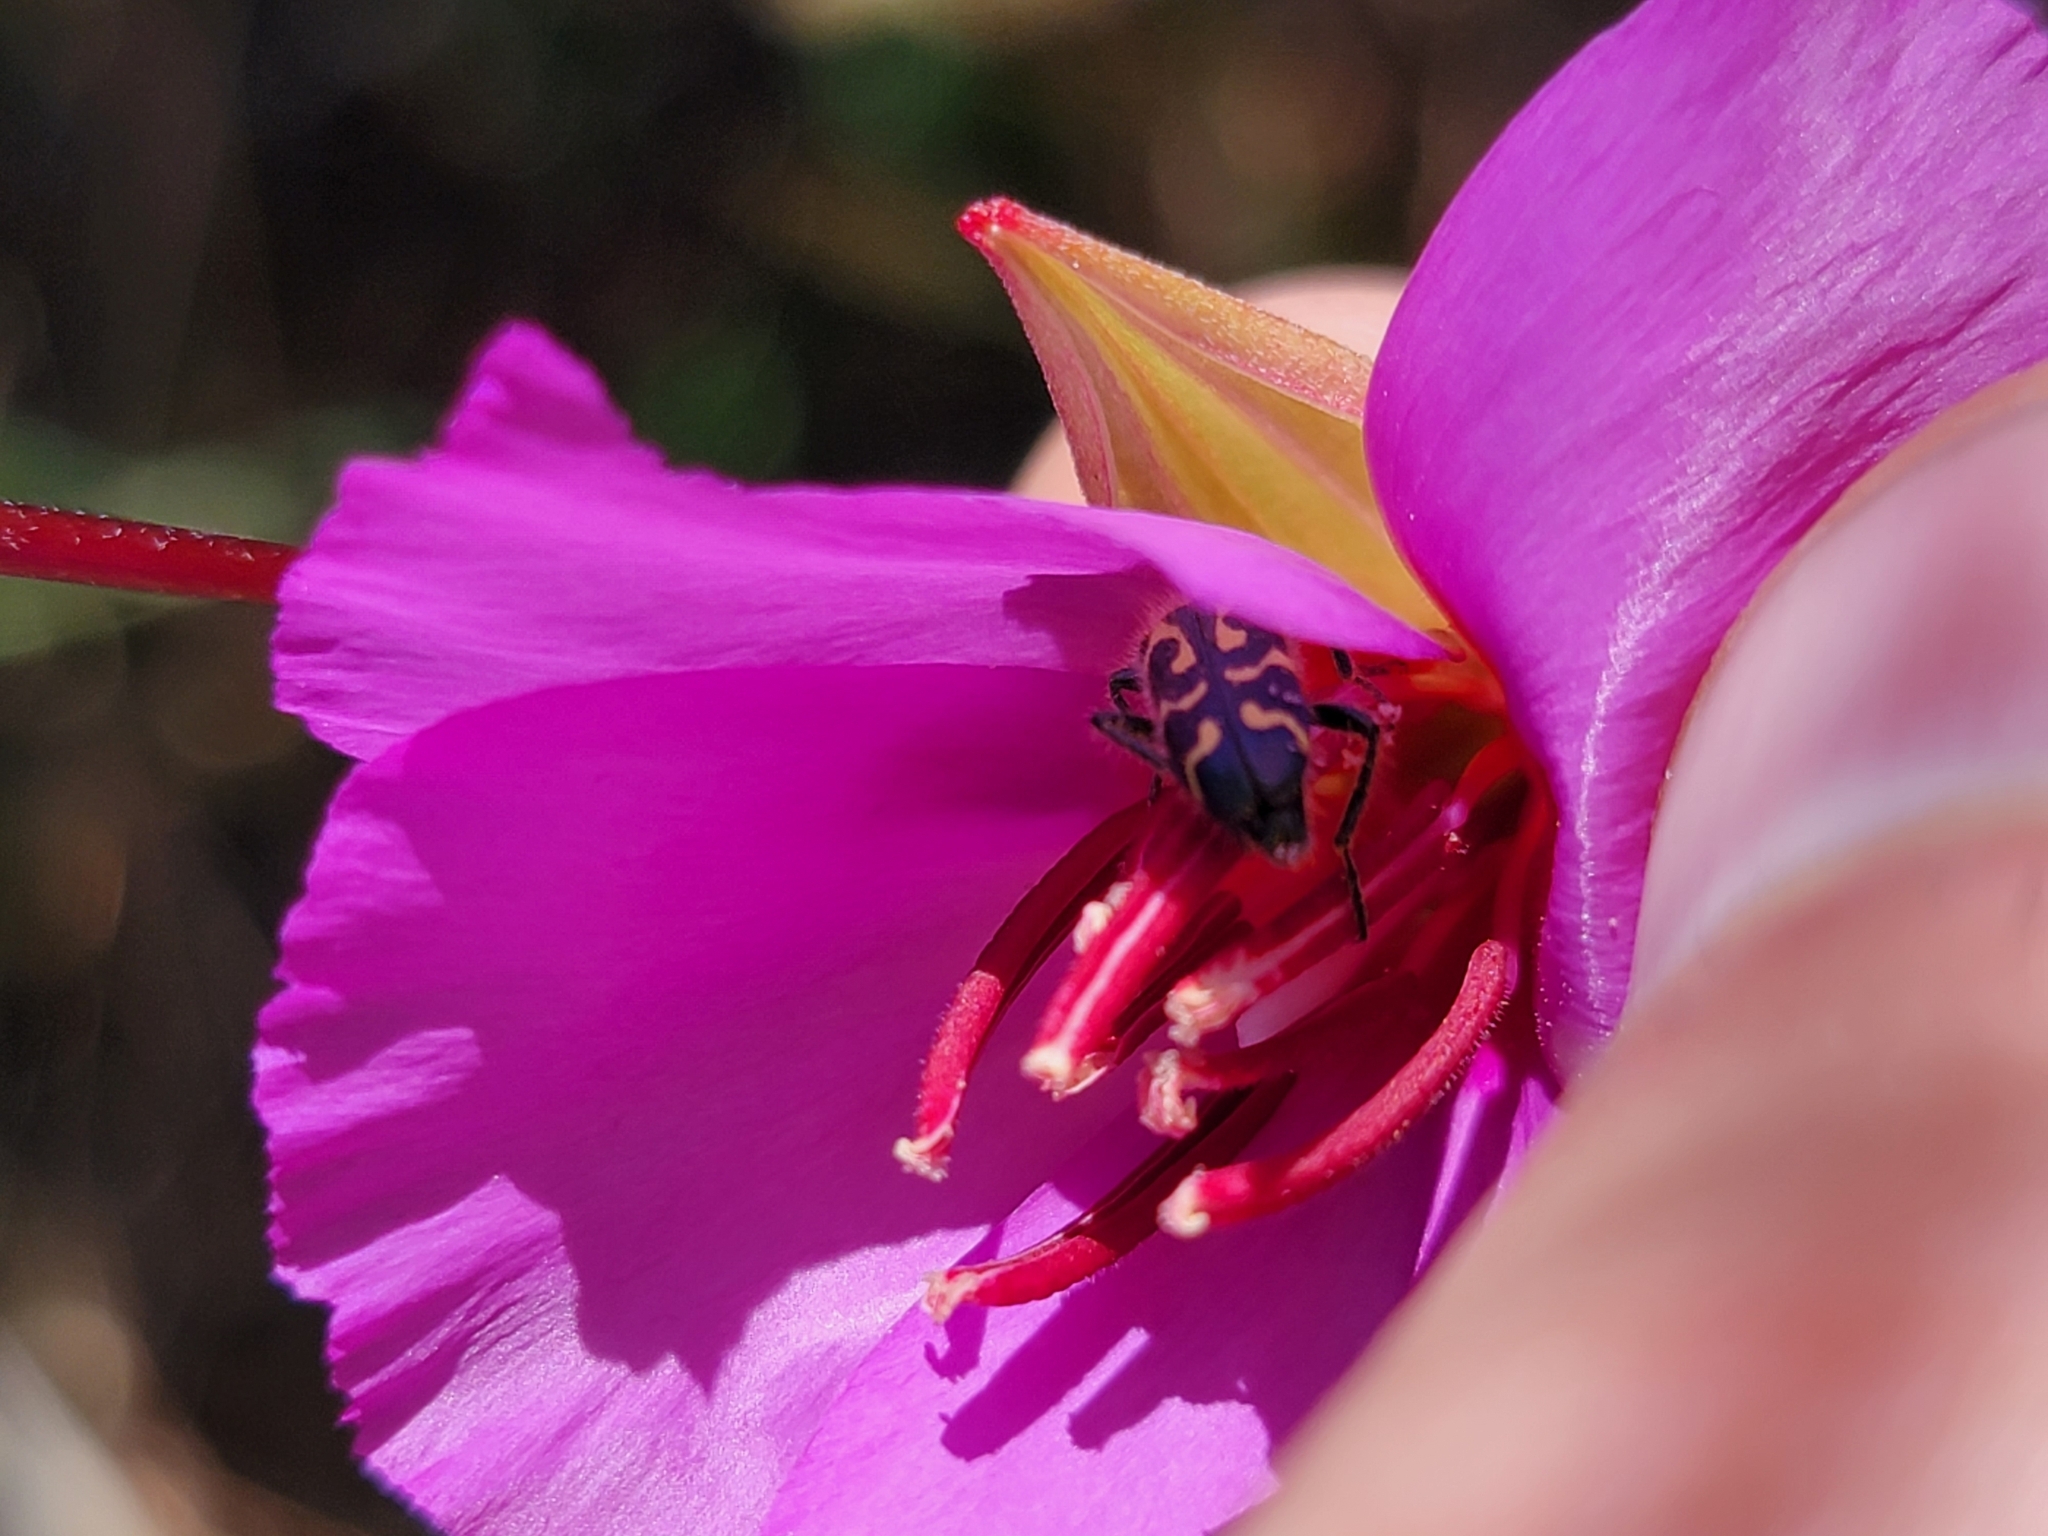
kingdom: Animalia
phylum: Arthropoda
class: Insecta
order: Coleoptera
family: Cleridae
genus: Trichodes
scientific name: Trichodes ornatus
